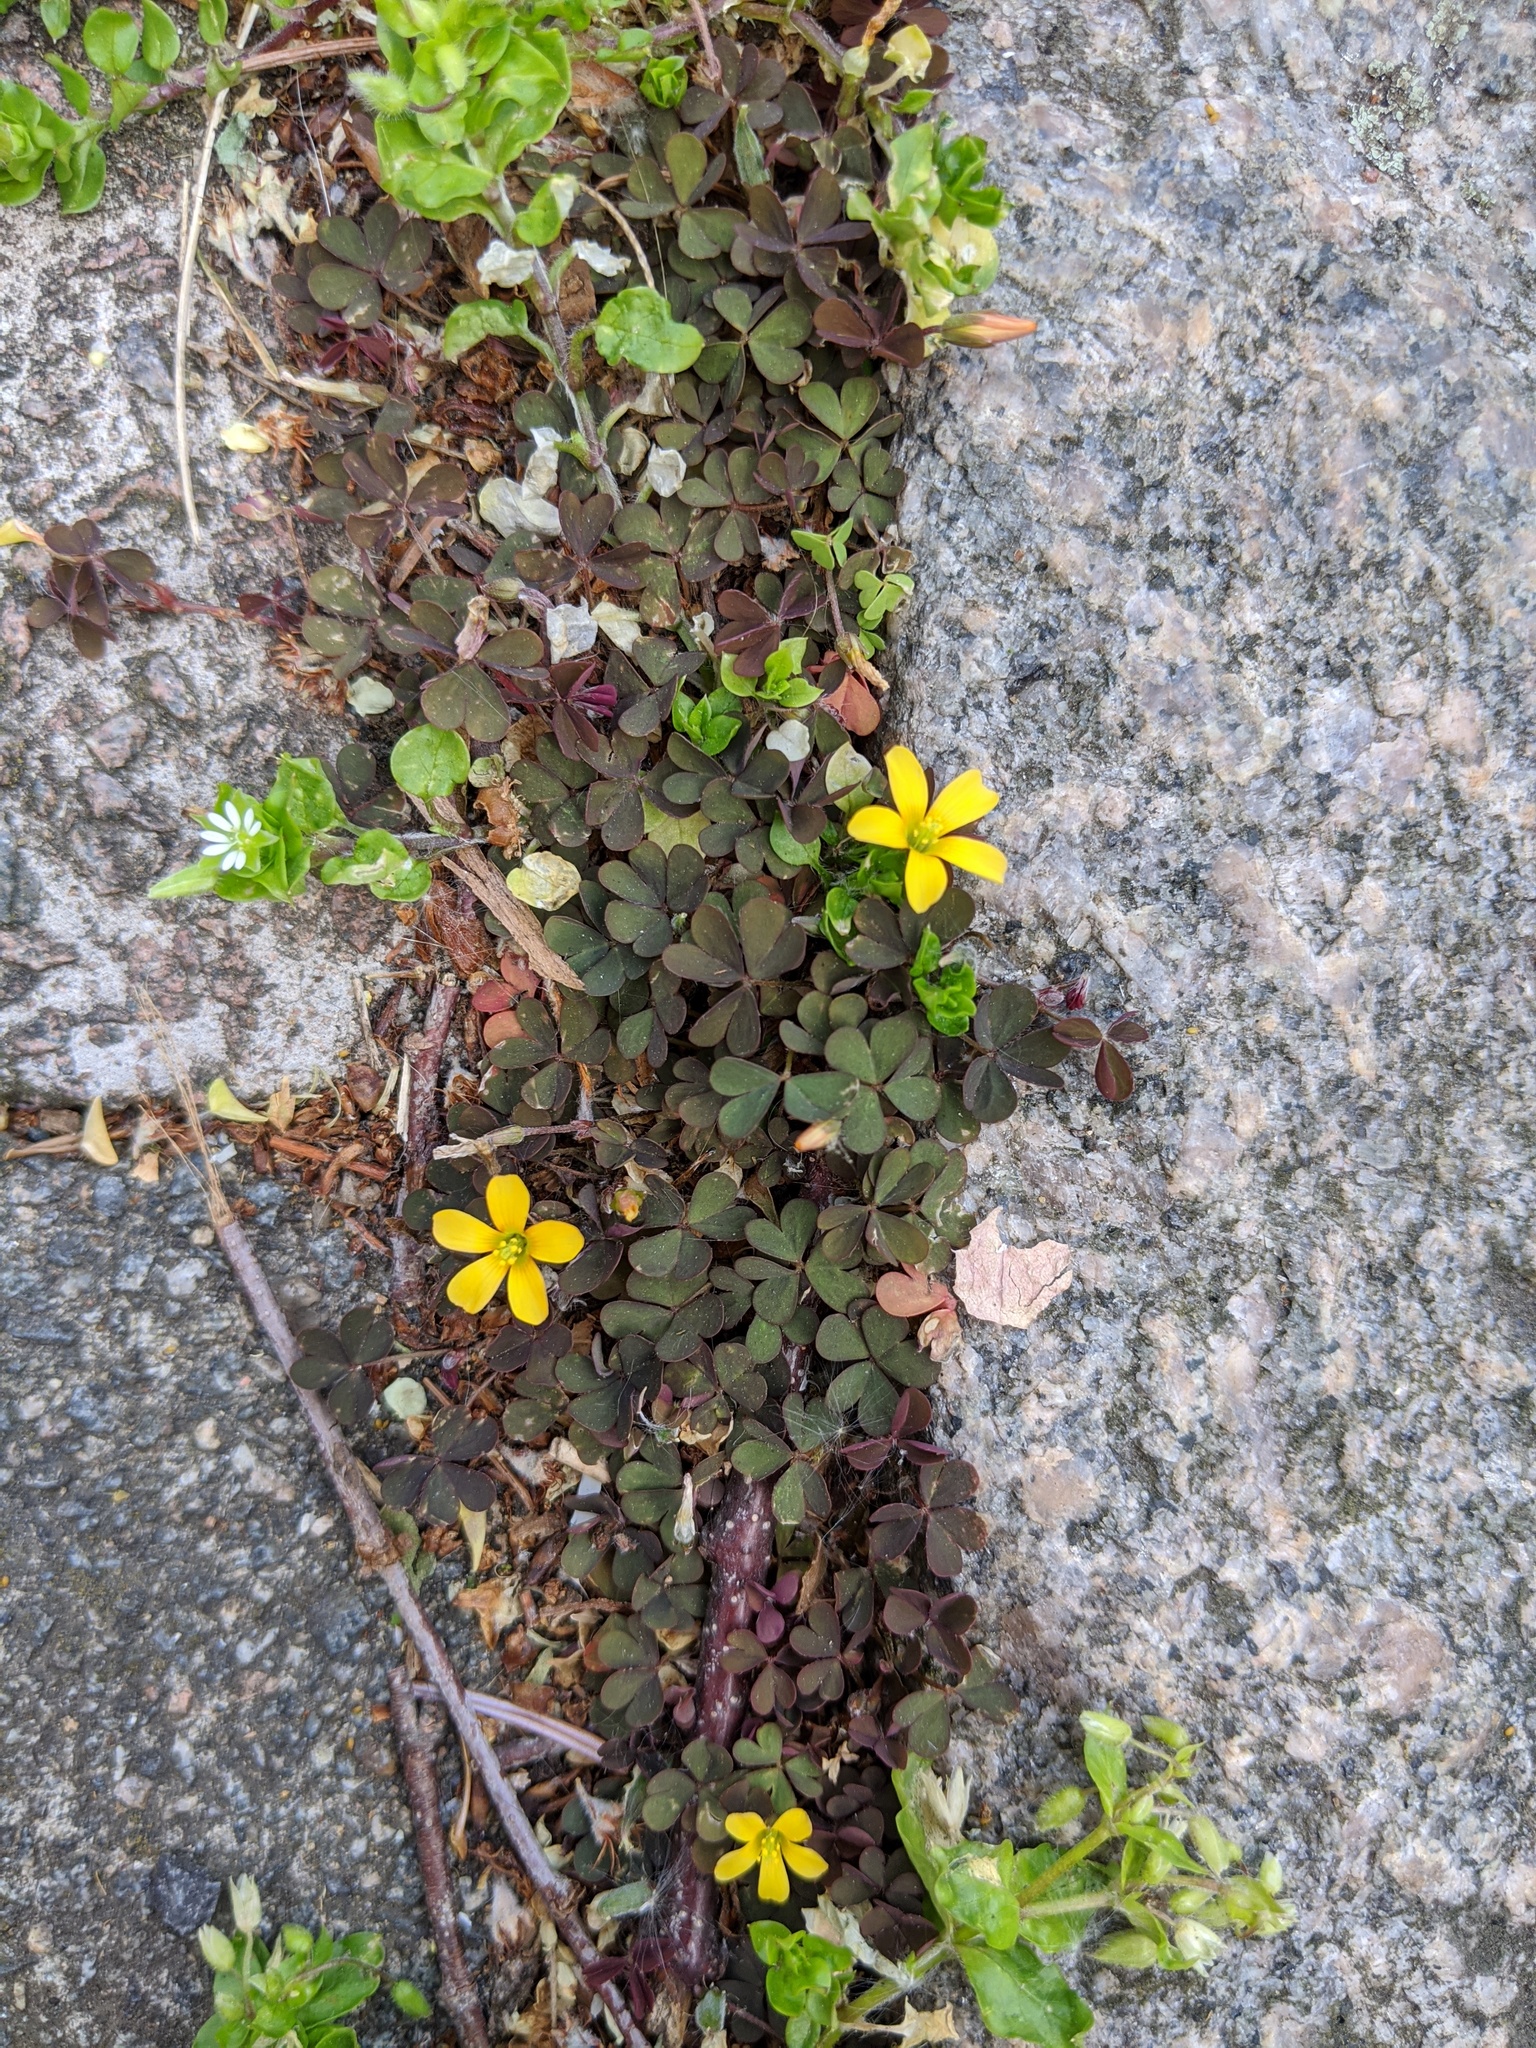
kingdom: Plantae
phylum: Tracheophyta
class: Magnoliopsida
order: Oxalidales
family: Oxalidaceae
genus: Oxalis
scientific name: Oxalis corniculata
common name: Procumbent yellow-sorrel
